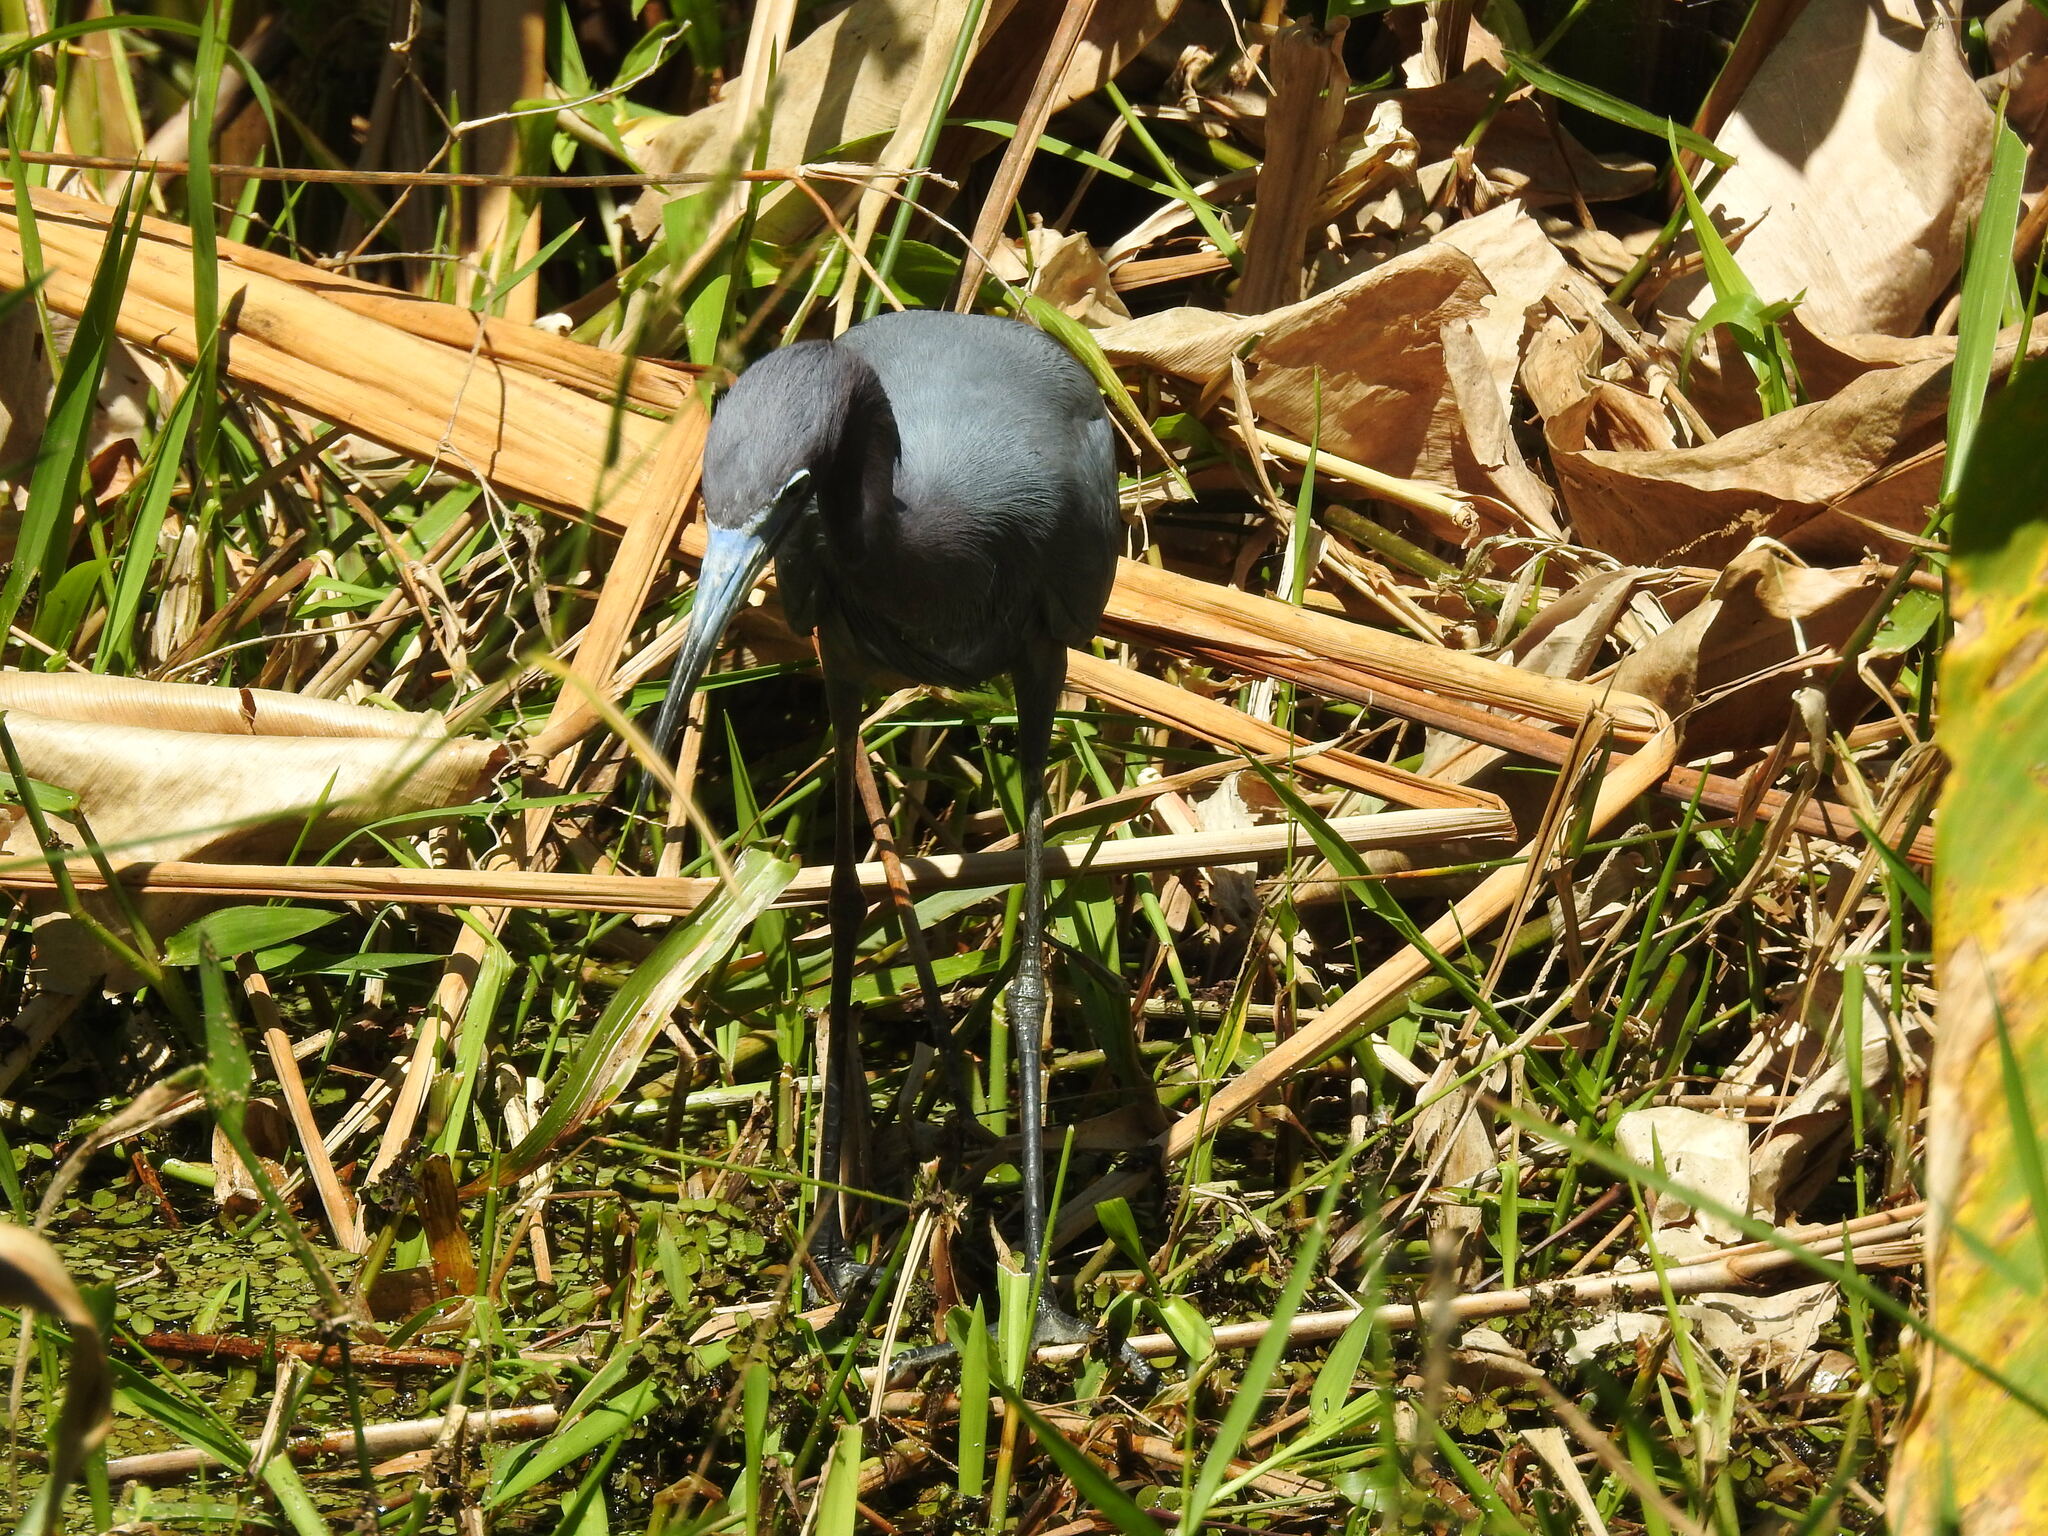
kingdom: Animalia
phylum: Chordata
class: Aves
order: Pelecaniformes
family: Ardeidae
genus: Egretta
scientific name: Egretta caerulea
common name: Little blue heron
